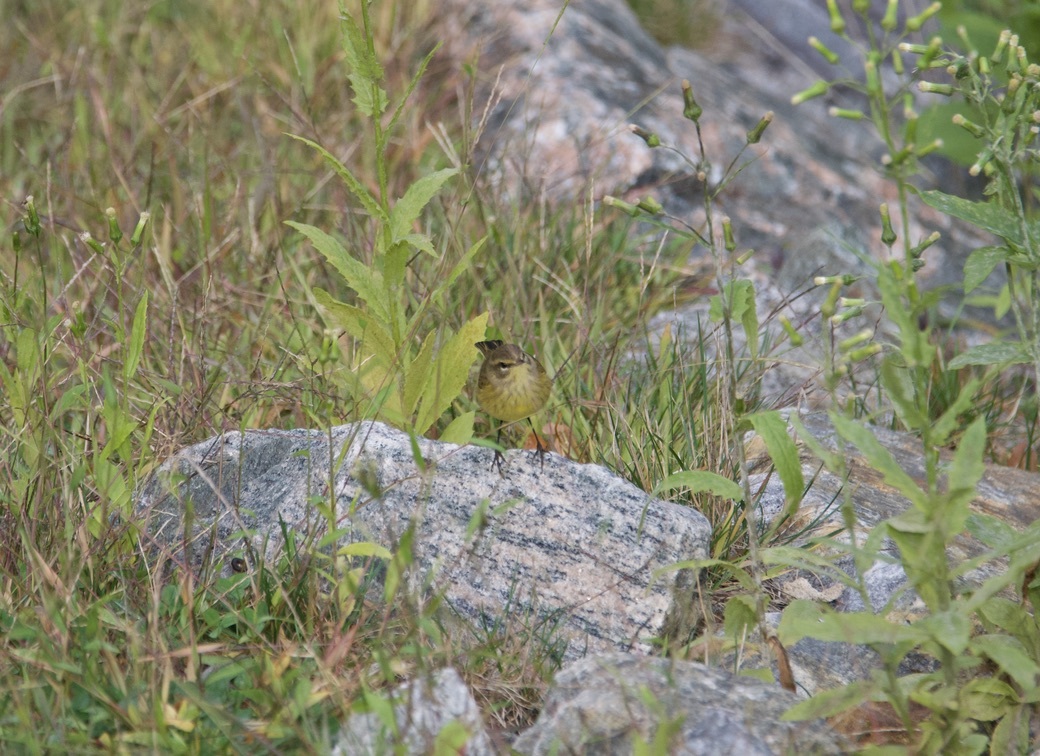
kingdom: Animalia
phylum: Chordata
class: Aves
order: Passeriformes
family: Parulidae
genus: Setophaga
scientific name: Setophaga palmarum
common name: Palm warbler
